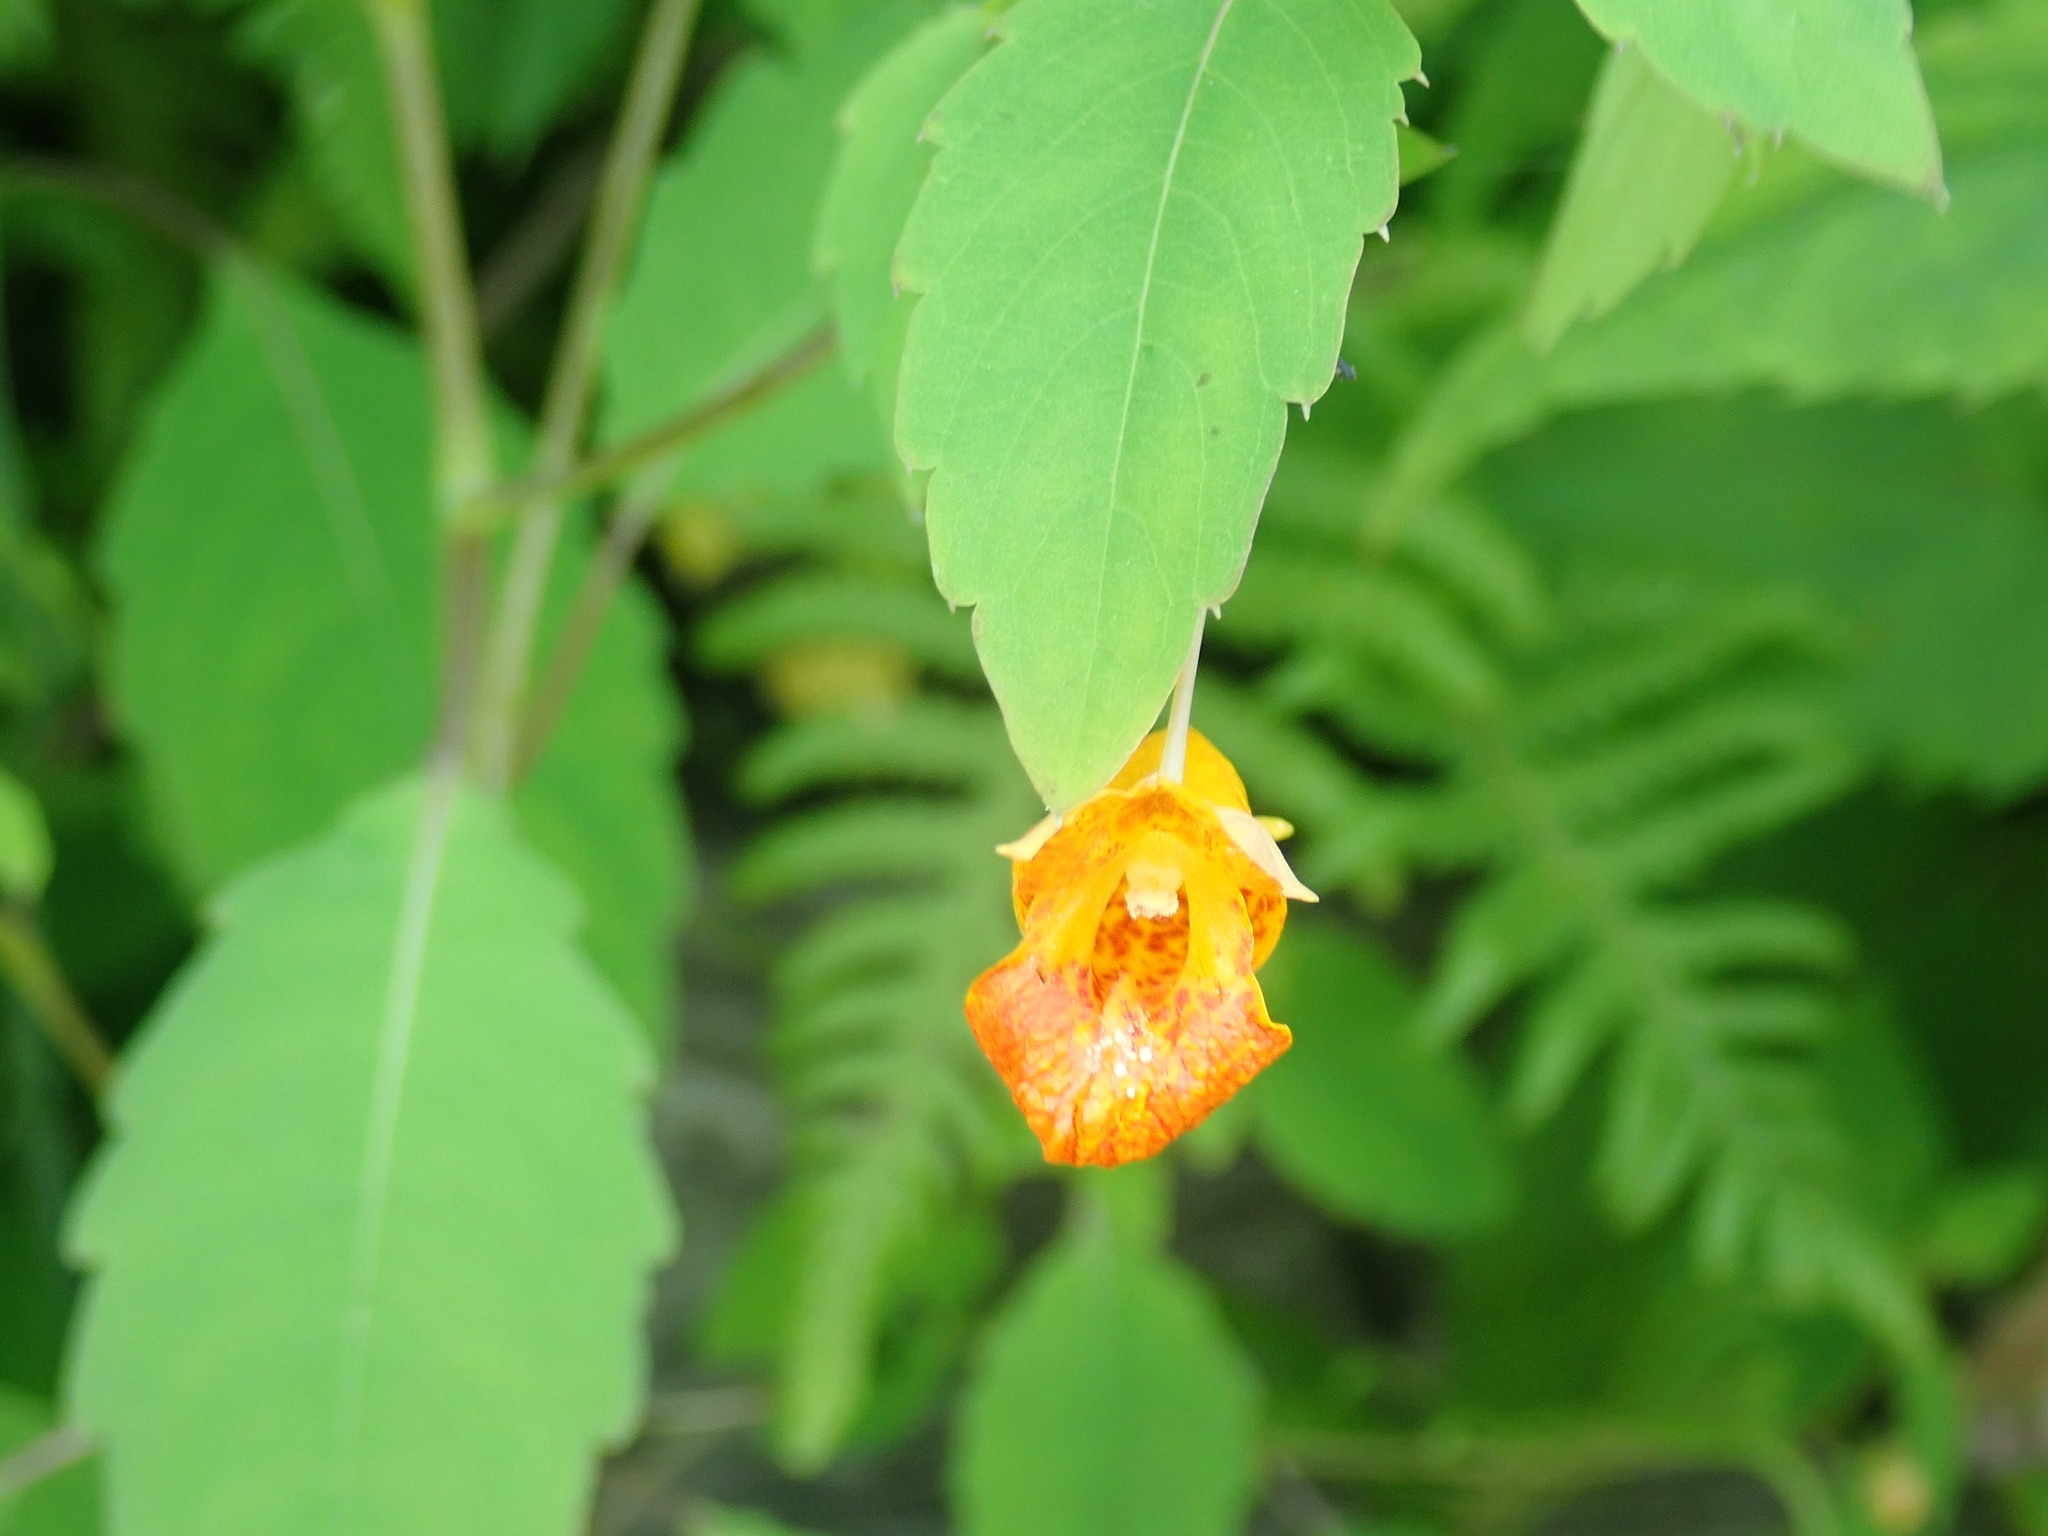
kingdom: Plantae
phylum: Tracheophyta
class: Magnoliopsida
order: Ericales
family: Balsaminaceae
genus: Impatiens
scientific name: Impatiens capensis
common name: Orange balsam
